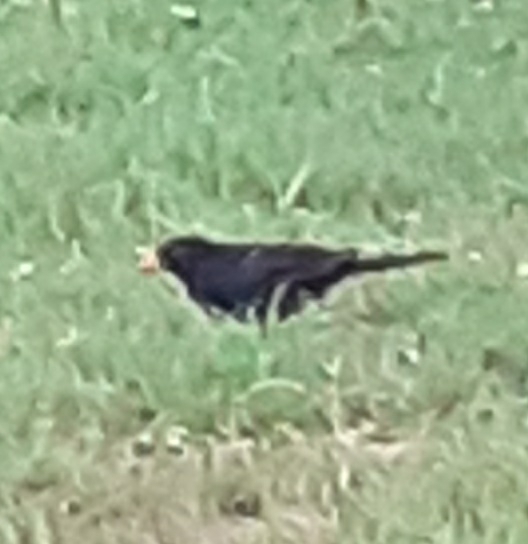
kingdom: Animalia
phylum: Chordata
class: Aves
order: Passeriformes
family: Turdidae
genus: Turdus
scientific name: Turdus merula
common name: Common blackbird
